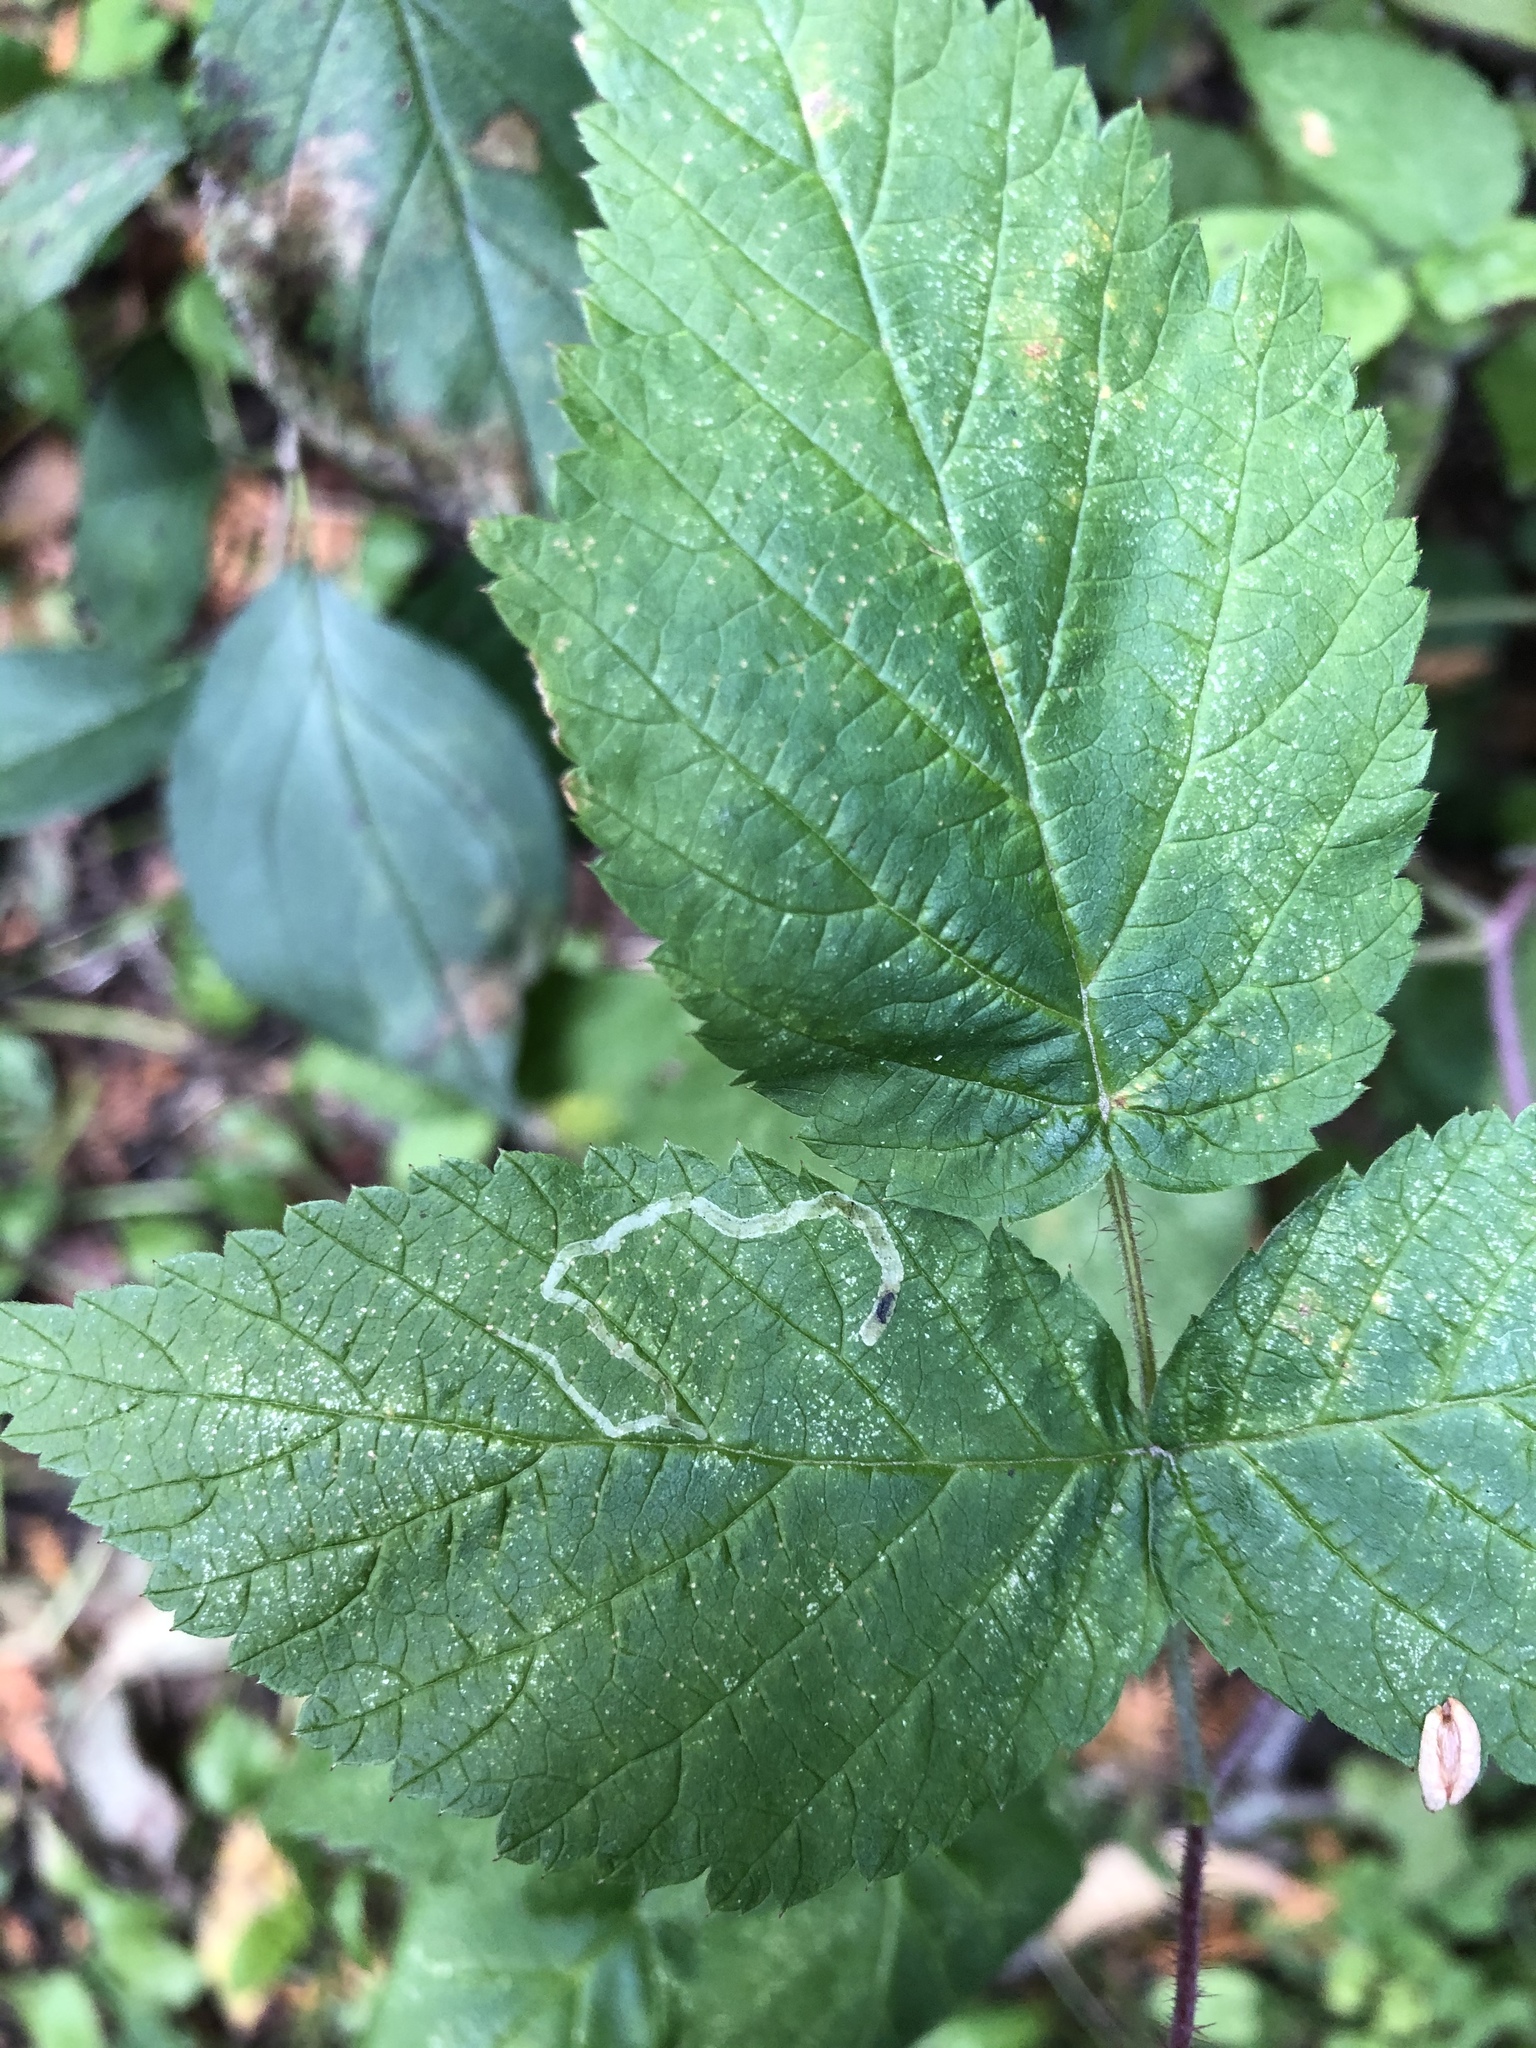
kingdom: Animalia
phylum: Arthropoda
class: Insecta
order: Diptera
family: Agromyzidae
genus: Agromyza
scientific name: Agromyza vockerothi
